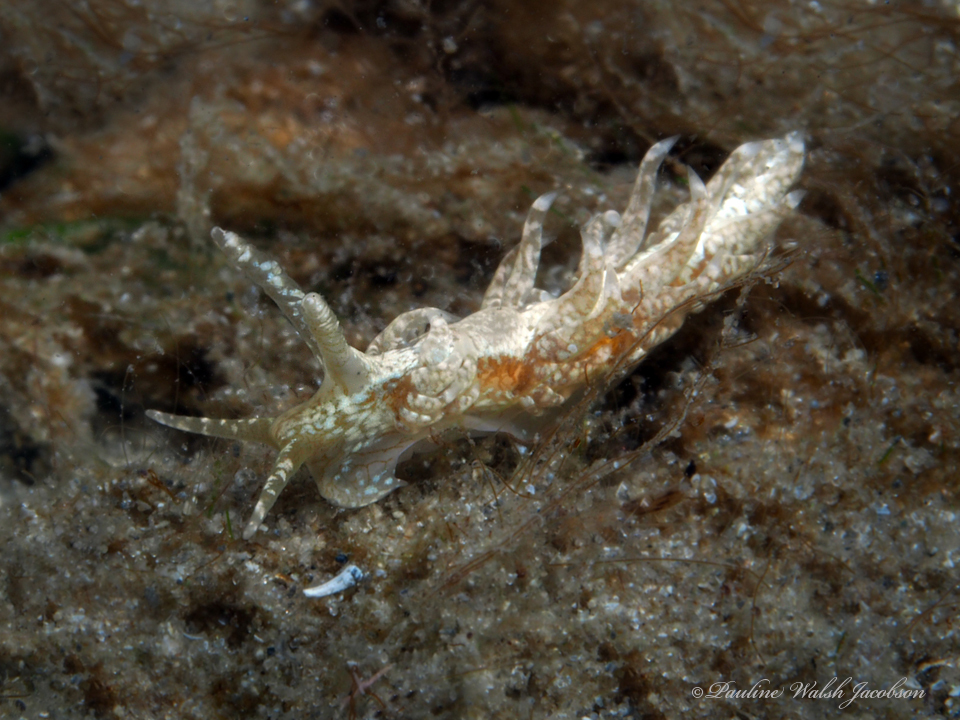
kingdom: Animalia
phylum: Mollusca
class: Gastropoda
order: Nudibranchia
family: Aeolidiidae
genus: Spurilla
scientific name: Spurilla sargassicola
